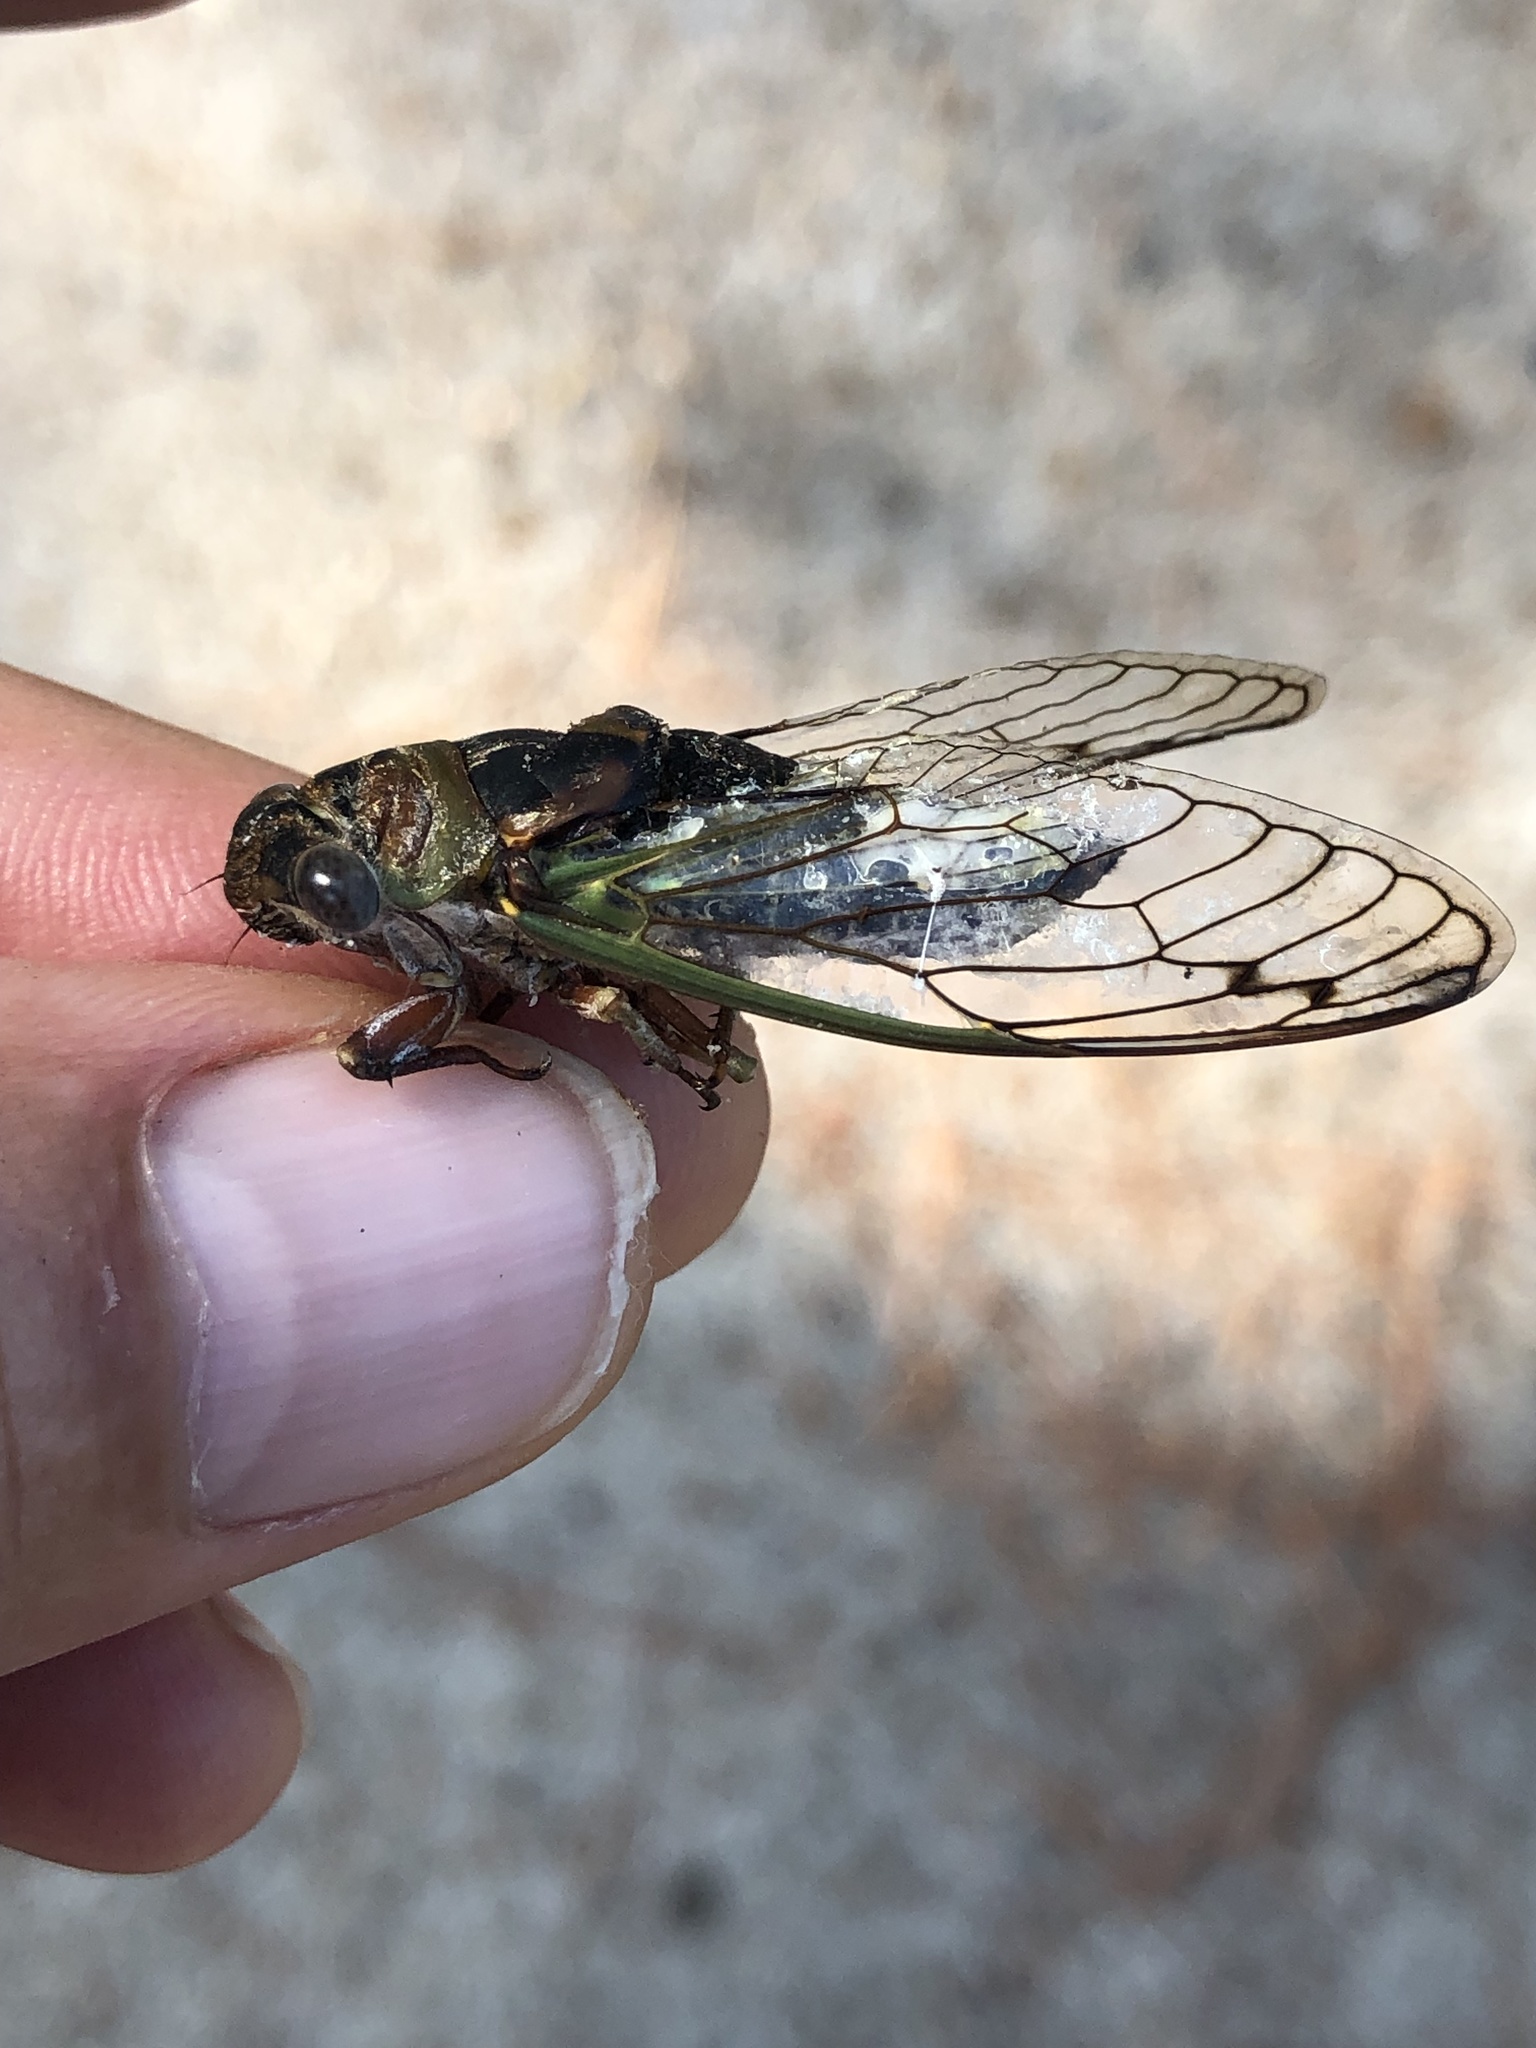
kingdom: Animalia
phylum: Arthropoda
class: Insecta
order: Hemiptera
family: Cicadidae
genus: Neotibicen
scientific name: Neotibicen davisi
